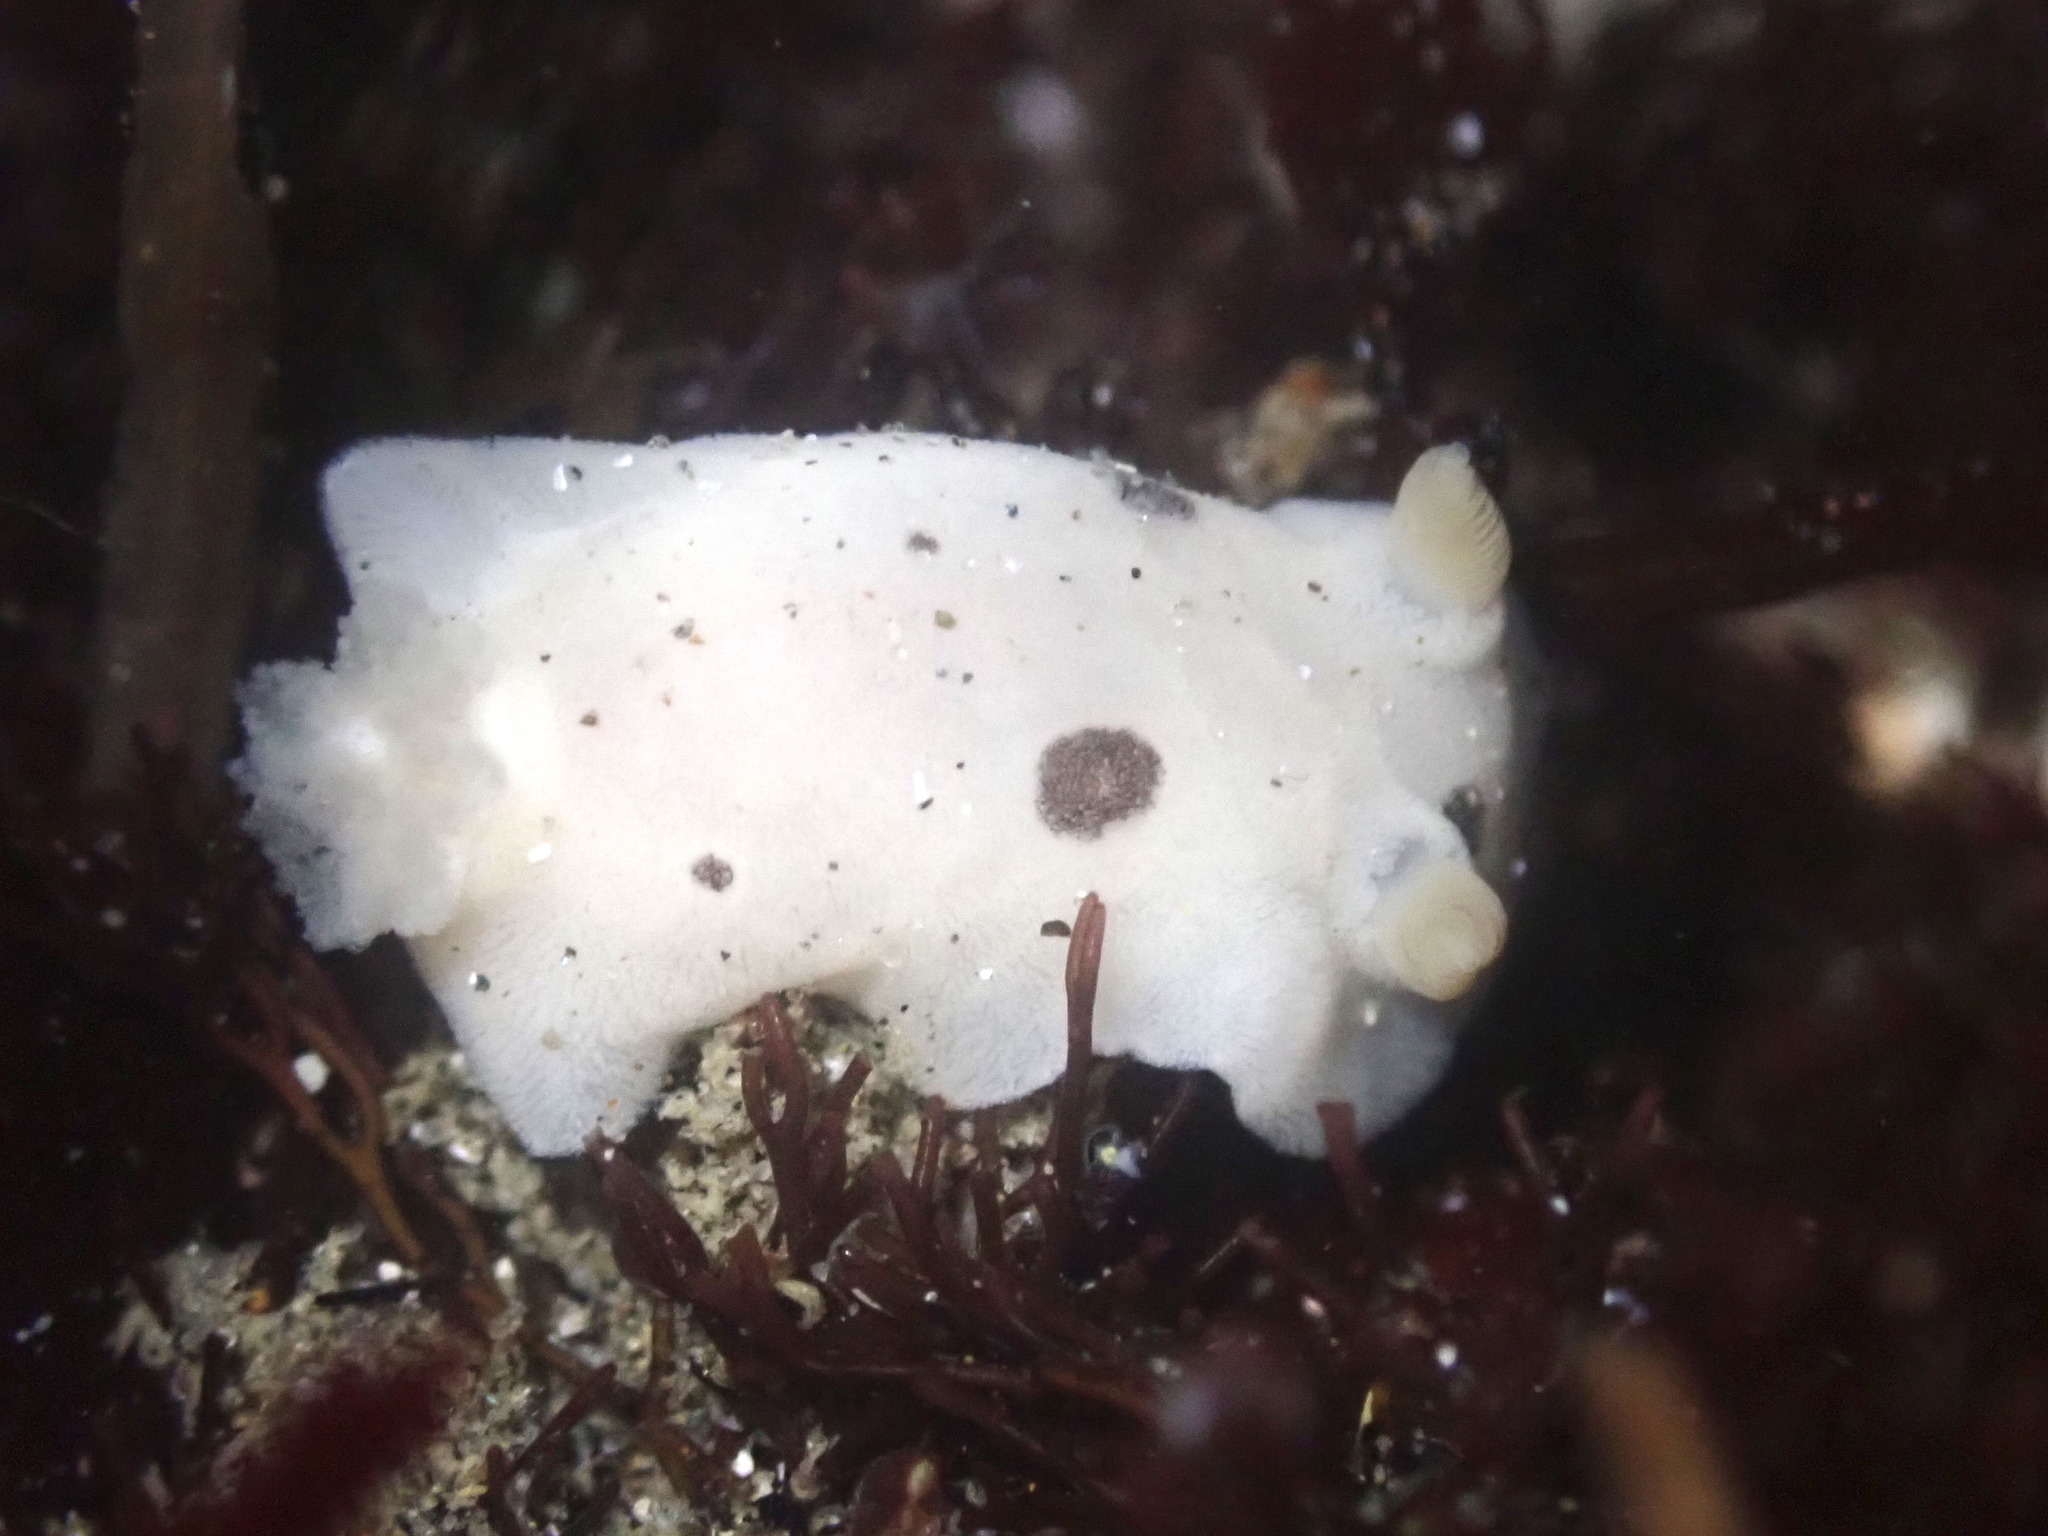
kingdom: Animalia
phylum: Mollusca
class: Gastropoda
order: Nudibranchia
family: Discodorididae
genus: Diaulula
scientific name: Diaulula sandiegensis
